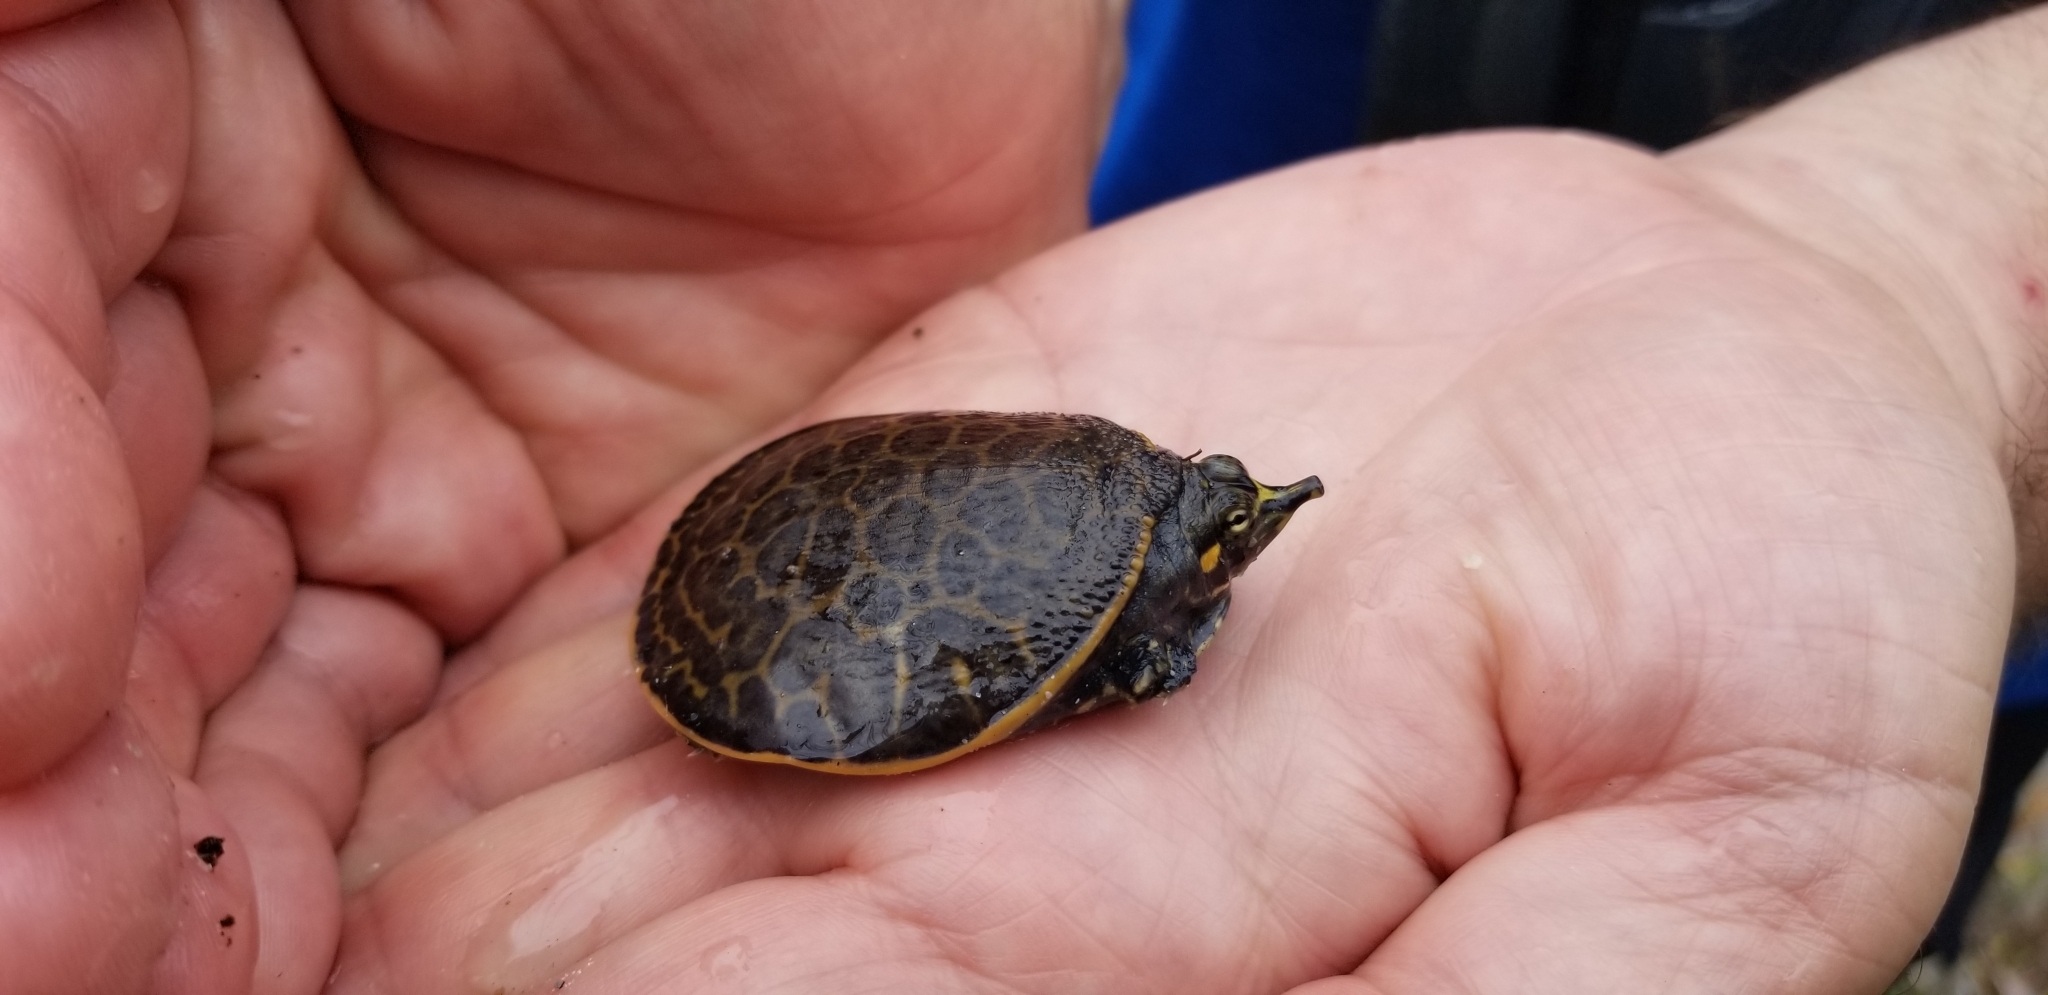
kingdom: Animalia
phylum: Chordata
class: Testudines
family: Trionychidae
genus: Apalone
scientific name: Apalone ferox
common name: Florida softshell turtle
